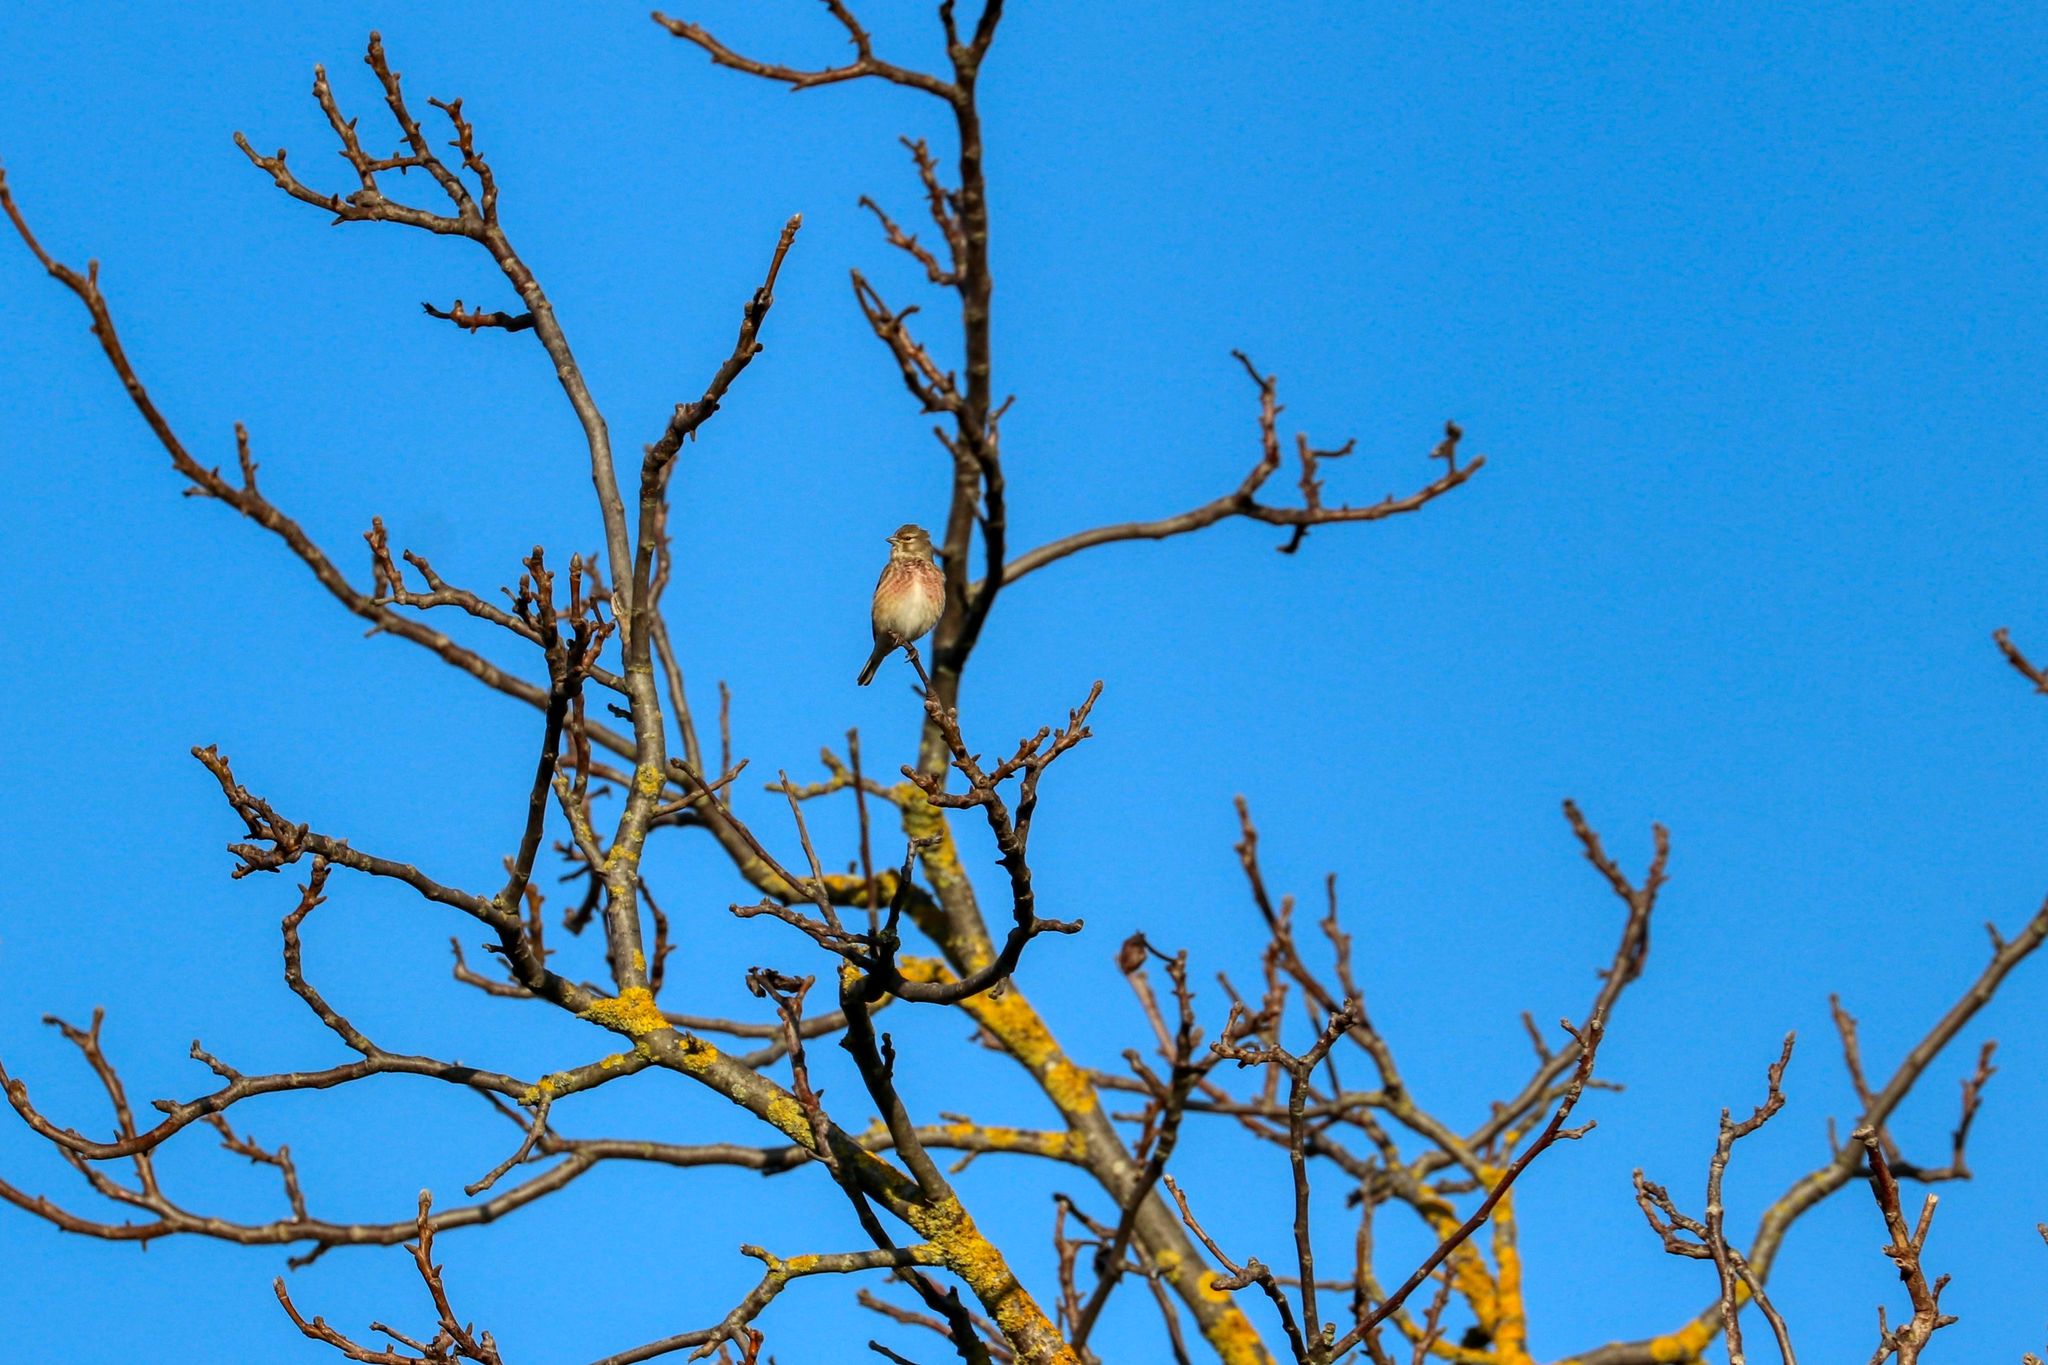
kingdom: Animalia
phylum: Chordata
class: Aves
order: Passeriformes
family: Fringillidae
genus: Linaria
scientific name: Linaria cannabina
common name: Common linnet
